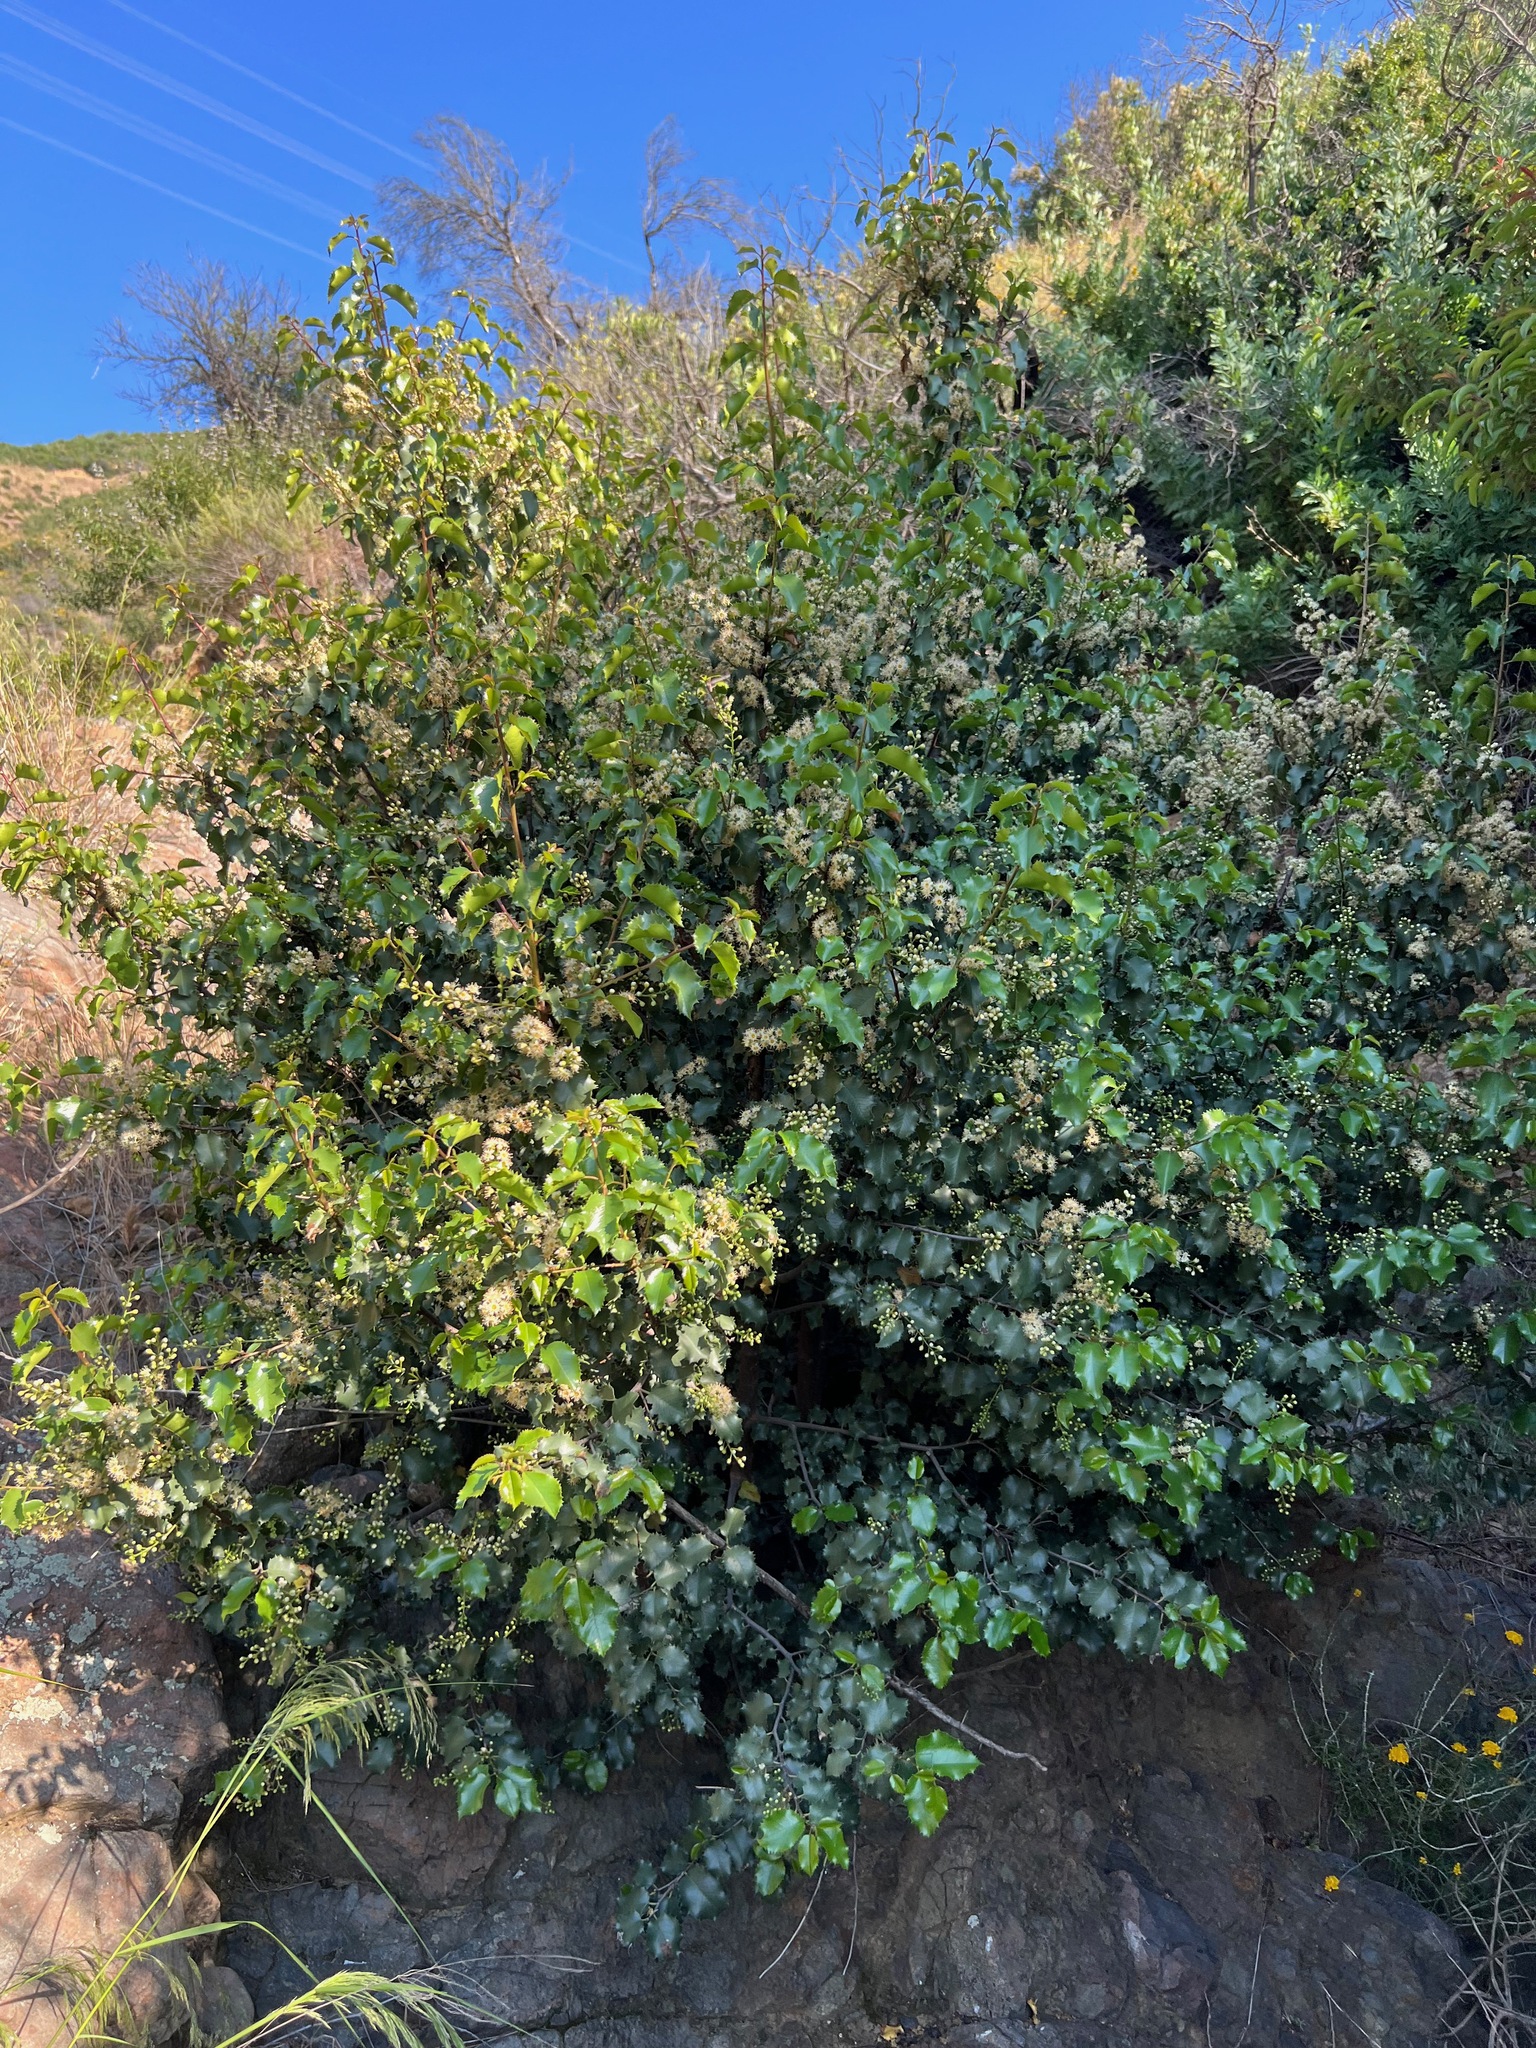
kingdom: Plantae
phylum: Tracheophyta
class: Magnoliopsida
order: Rosales
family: Rosaceae
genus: Prunus
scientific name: Prunus ilicifolia
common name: Hollyleaf cherry
